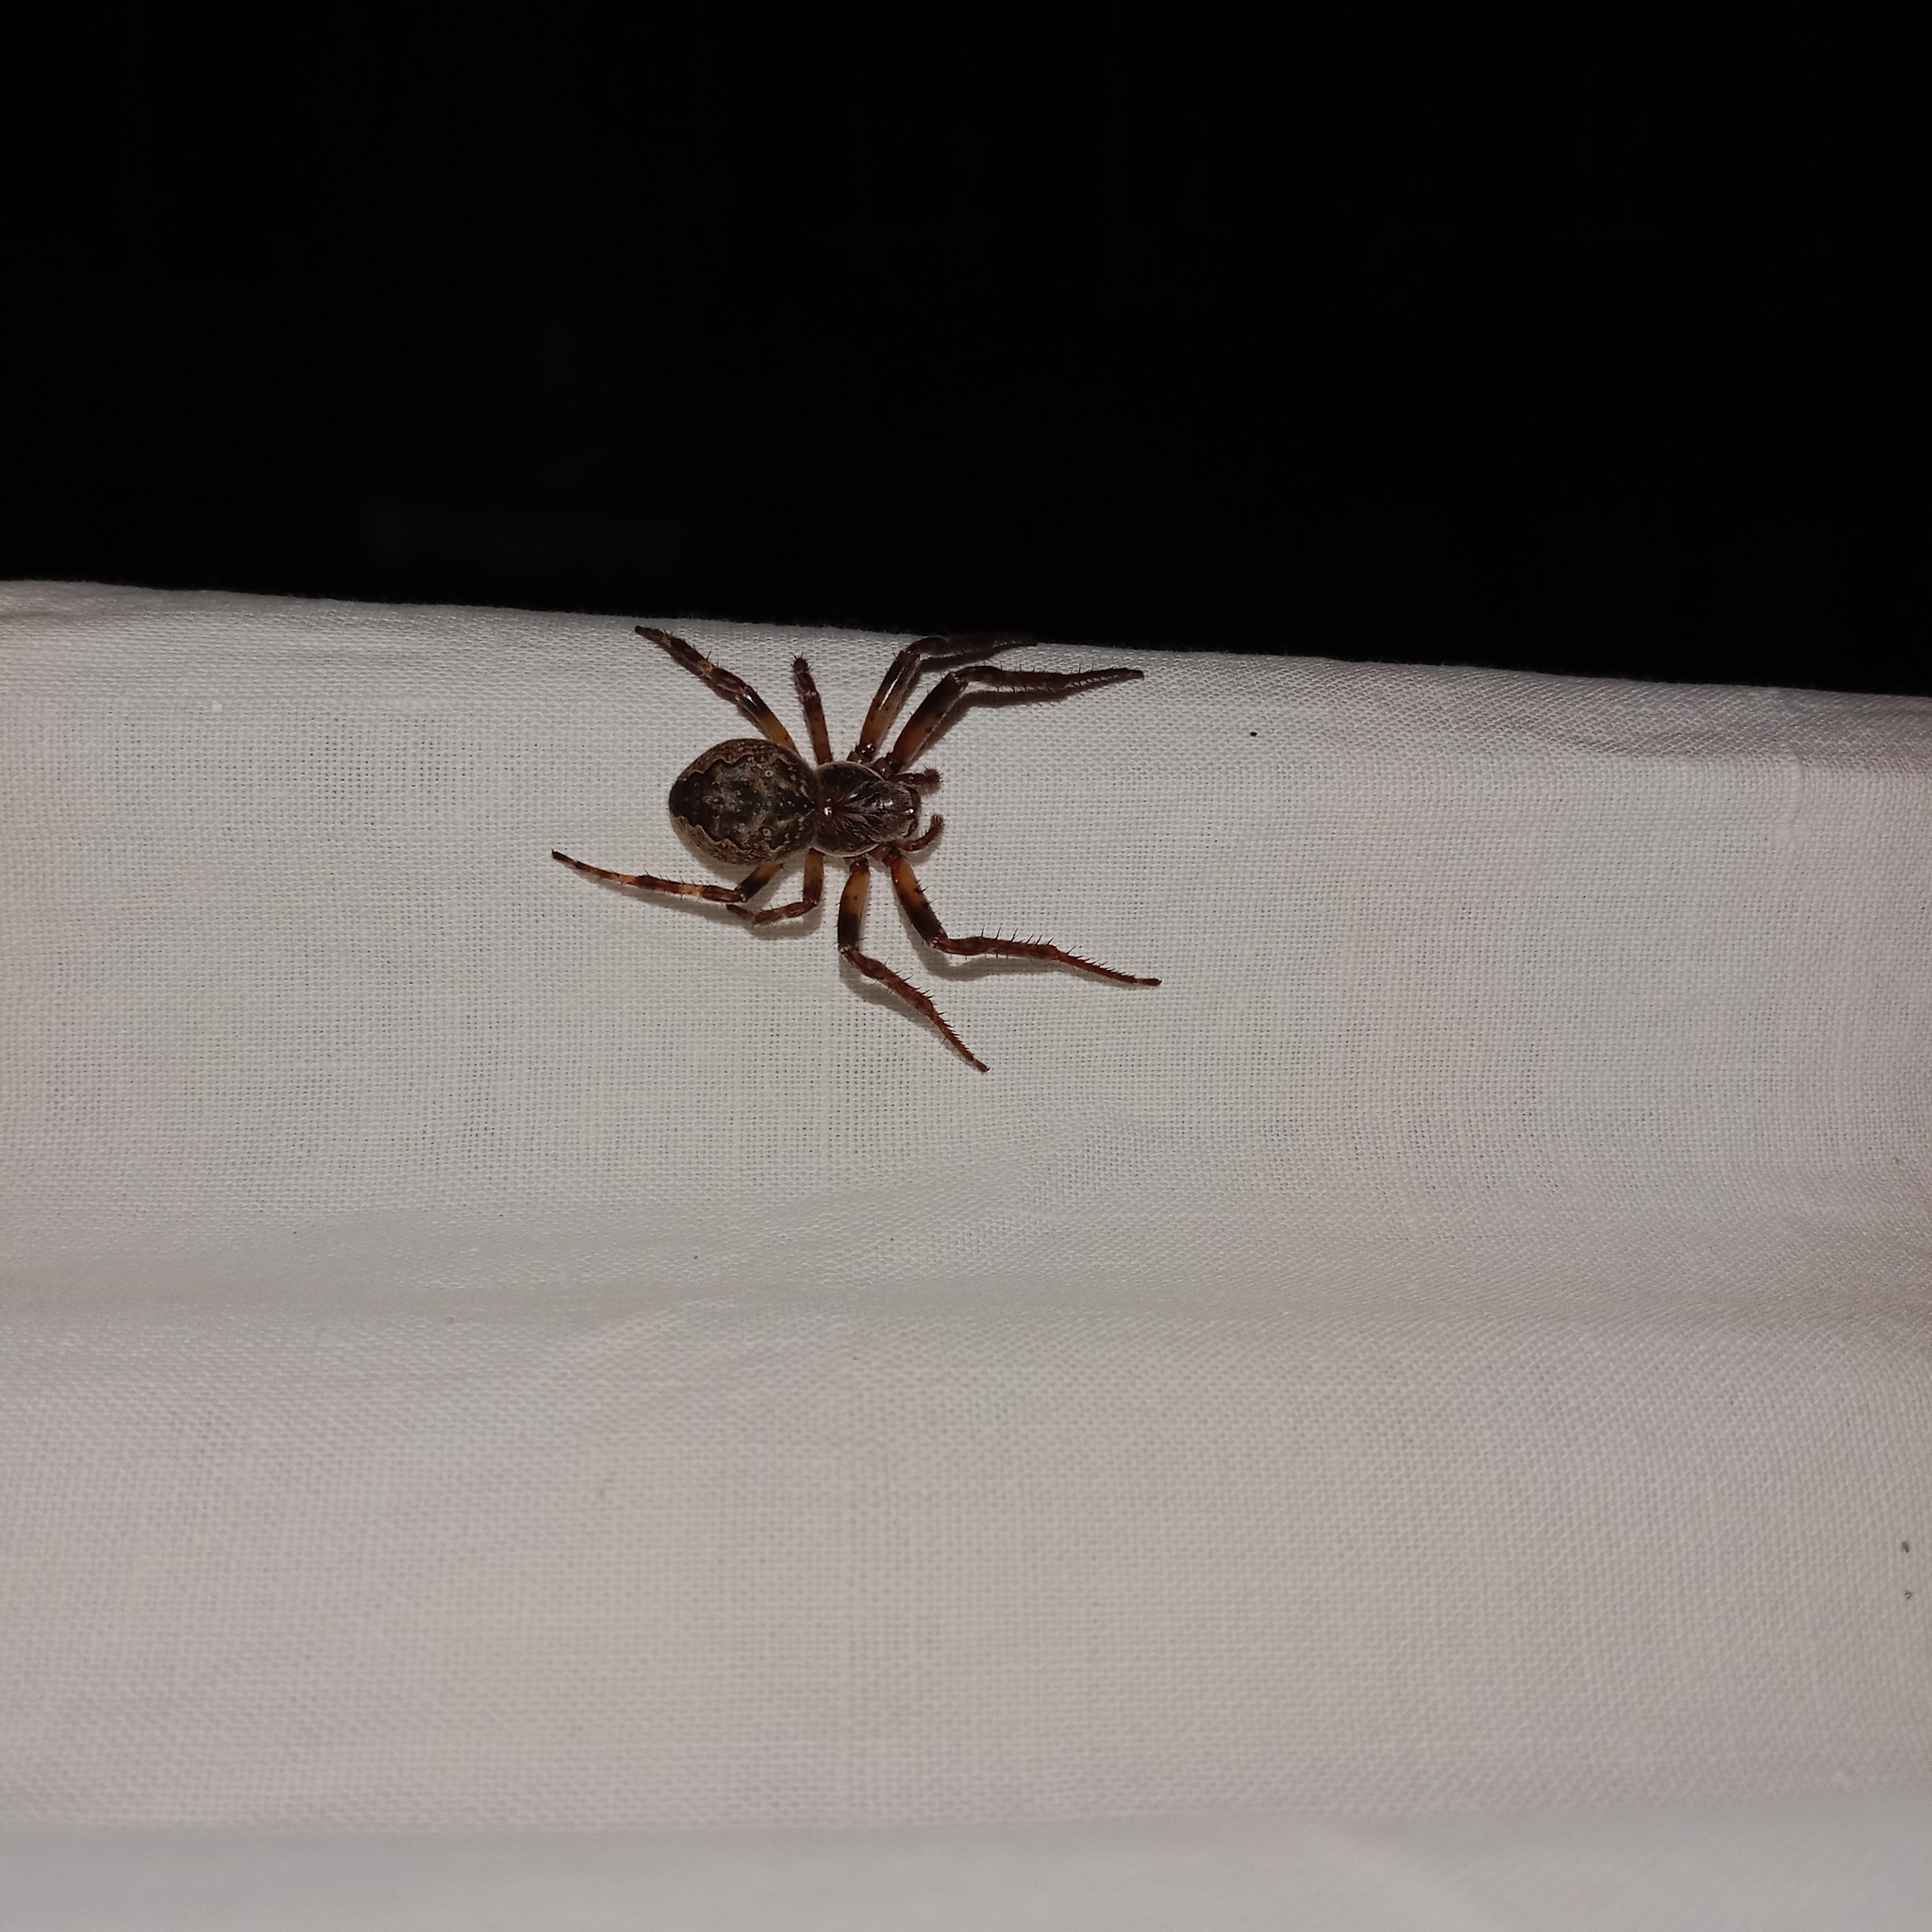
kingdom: Animalia
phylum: Arthropoda
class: Arachnida
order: Araneae
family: Araneidae
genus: Larinioides
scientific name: Larinioides ixobolus
